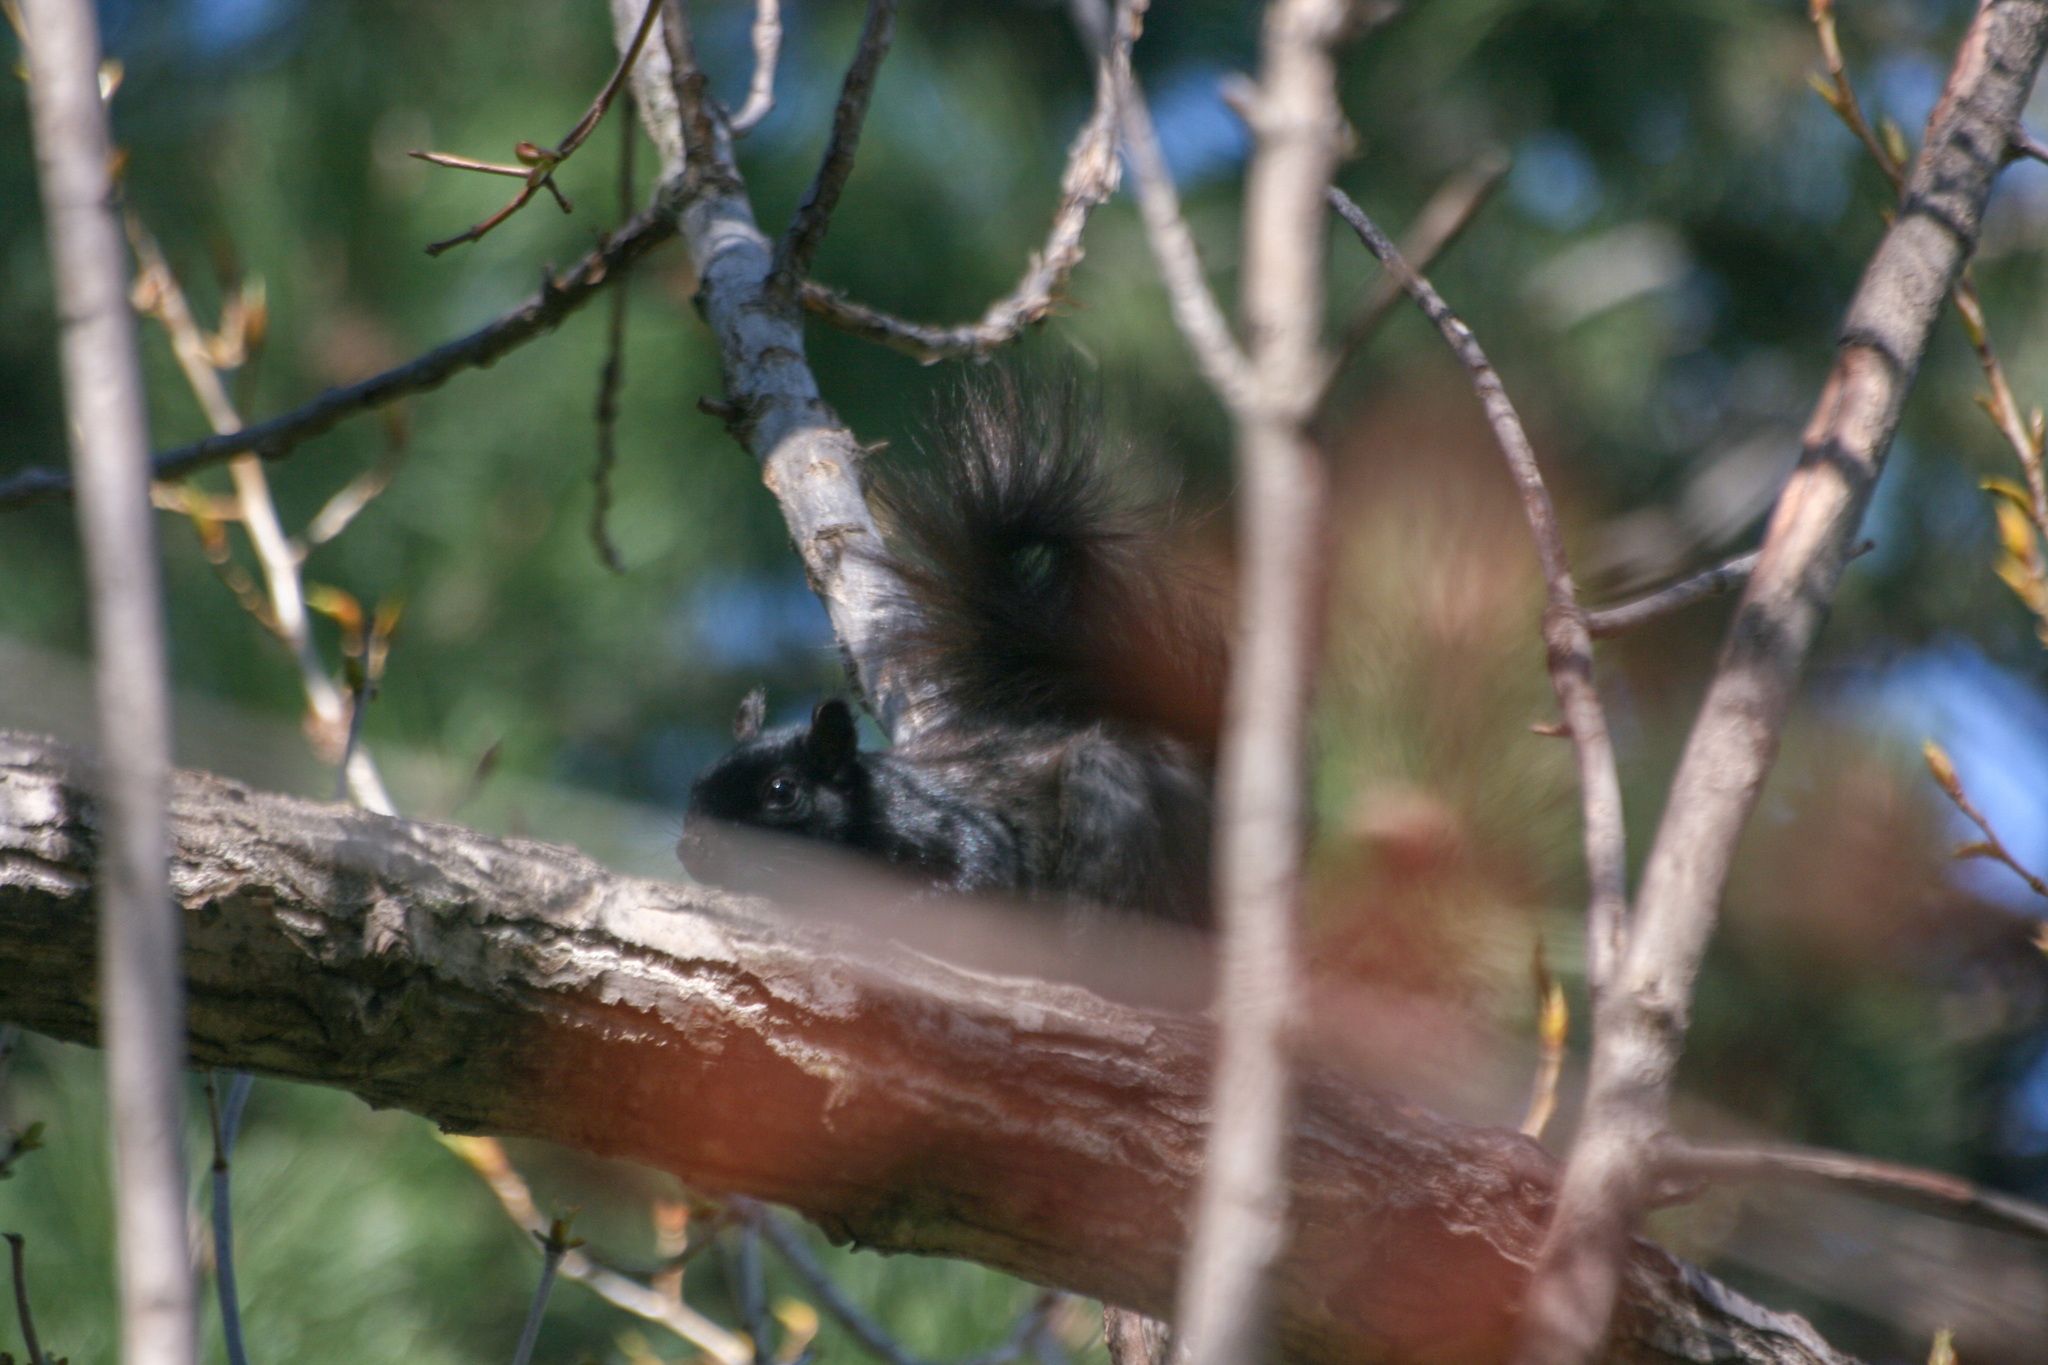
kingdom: Animalia
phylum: Chordata
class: Mammalia
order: Rodentia
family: Sciuridae
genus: Sciurus
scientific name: Sciurus carolinensis
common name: Eastern gray squirrel
